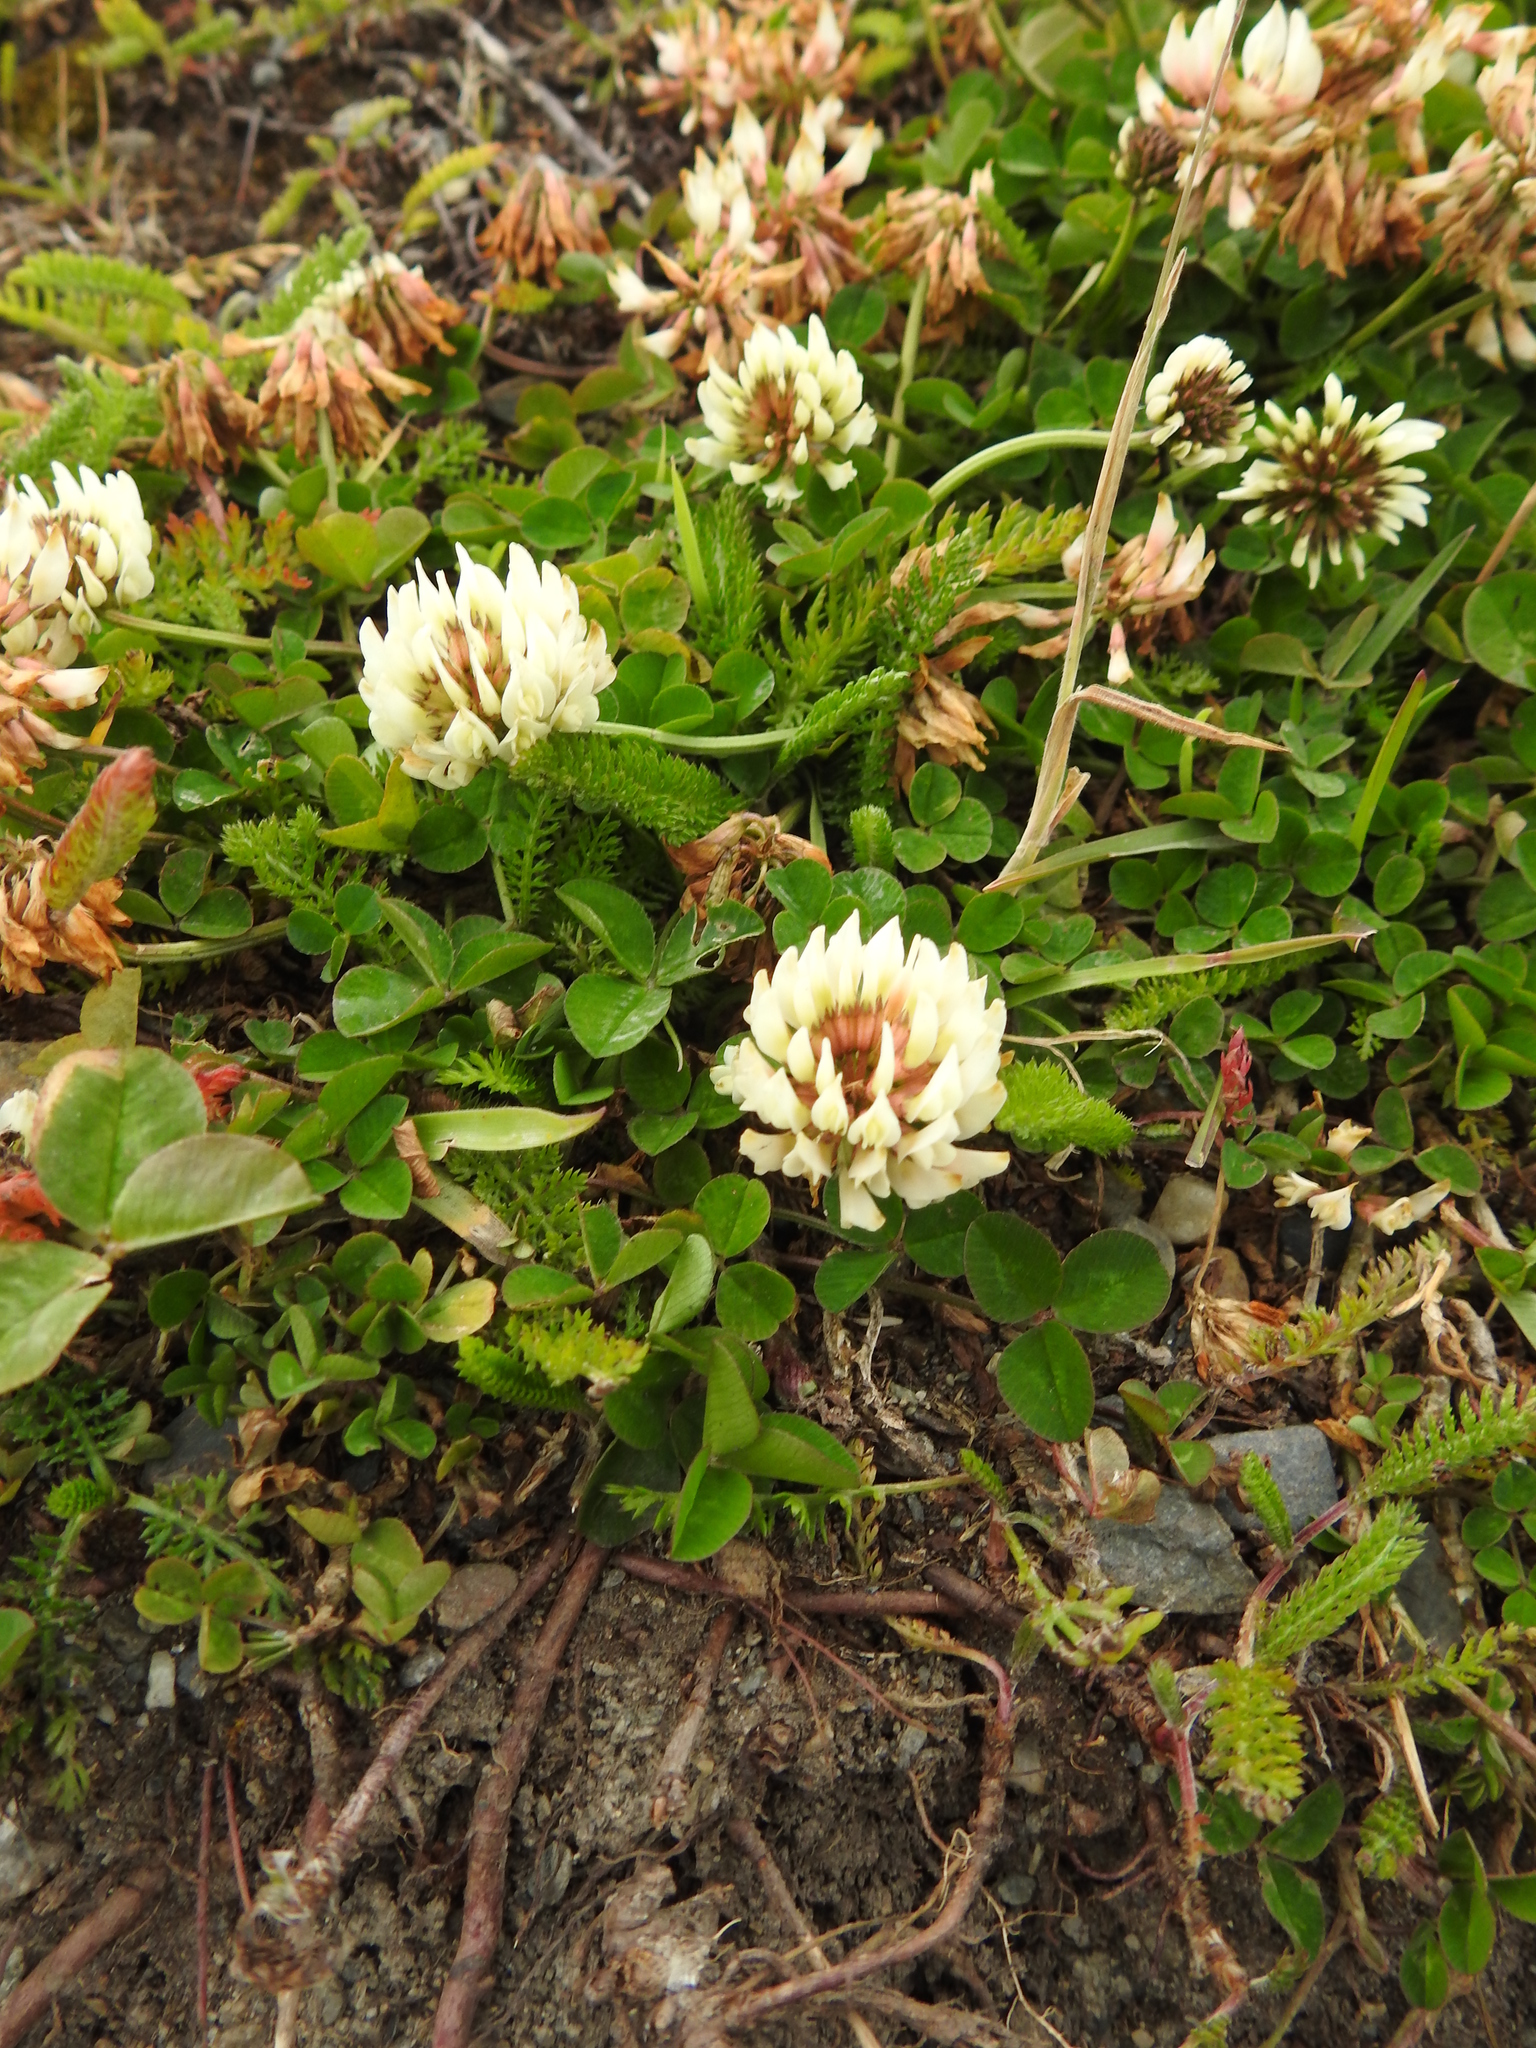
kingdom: Plantae
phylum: Tracheophyta
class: Magnoliopsida
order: Fabales
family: Fabaceae
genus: Trifolium
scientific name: Trifolium repens
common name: White clover
